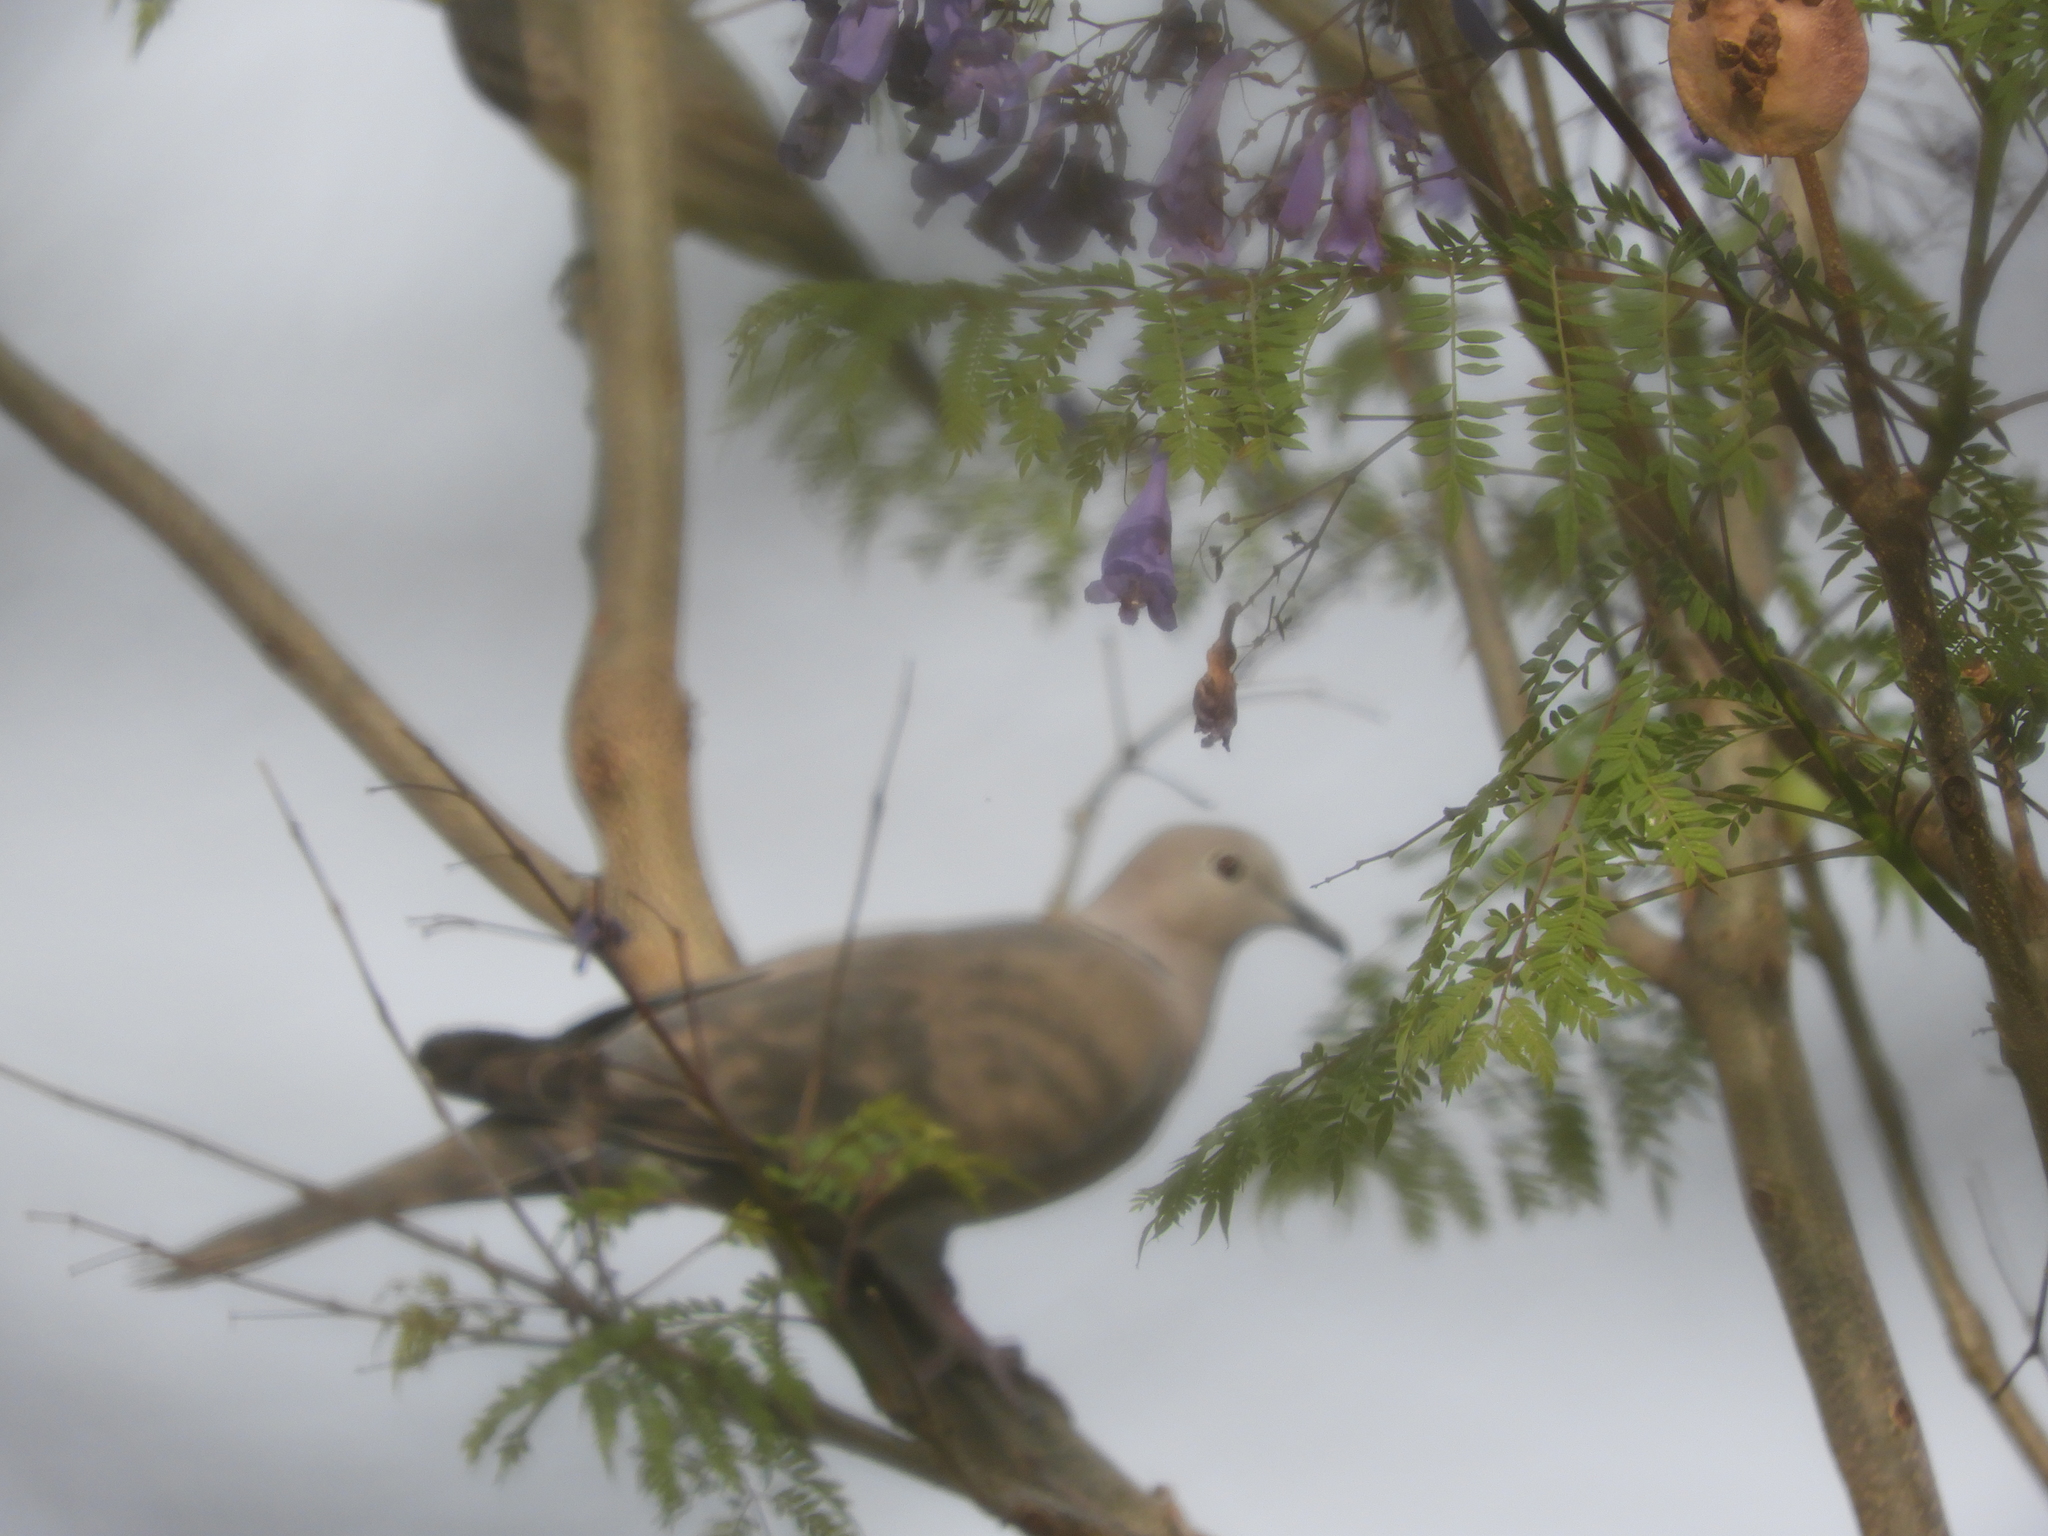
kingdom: Animalia
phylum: Chordata
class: Aves
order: Columbiformes
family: Columbidae
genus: Streptopelia
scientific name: Streptopelia decaocto
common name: Eurasian collared dove
